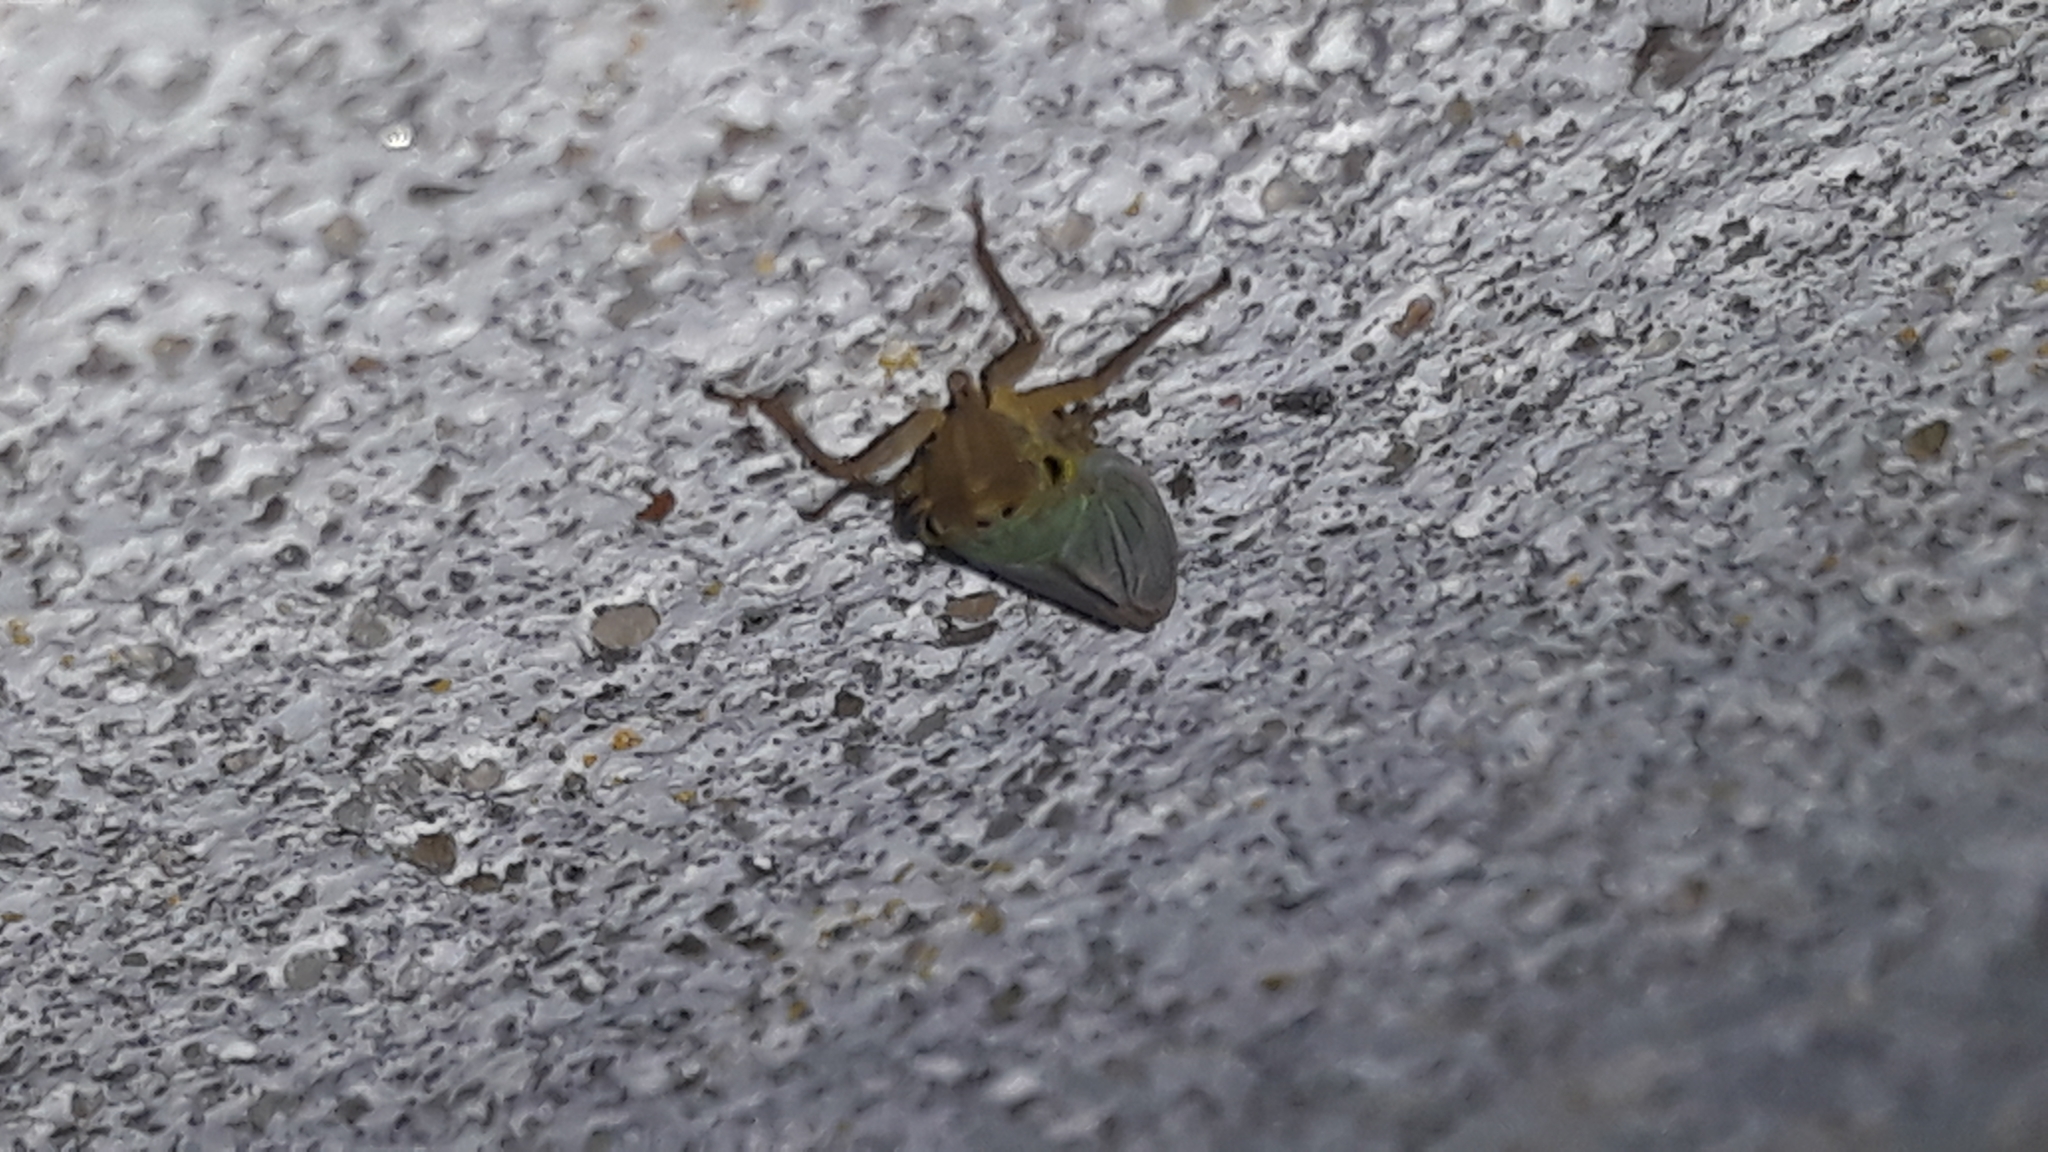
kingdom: Animalia
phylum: Arthropoda
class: Insecta
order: Hemiptera
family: Cicadellidae
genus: Cicadella
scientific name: Cicadella viridis
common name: Leafhopper
